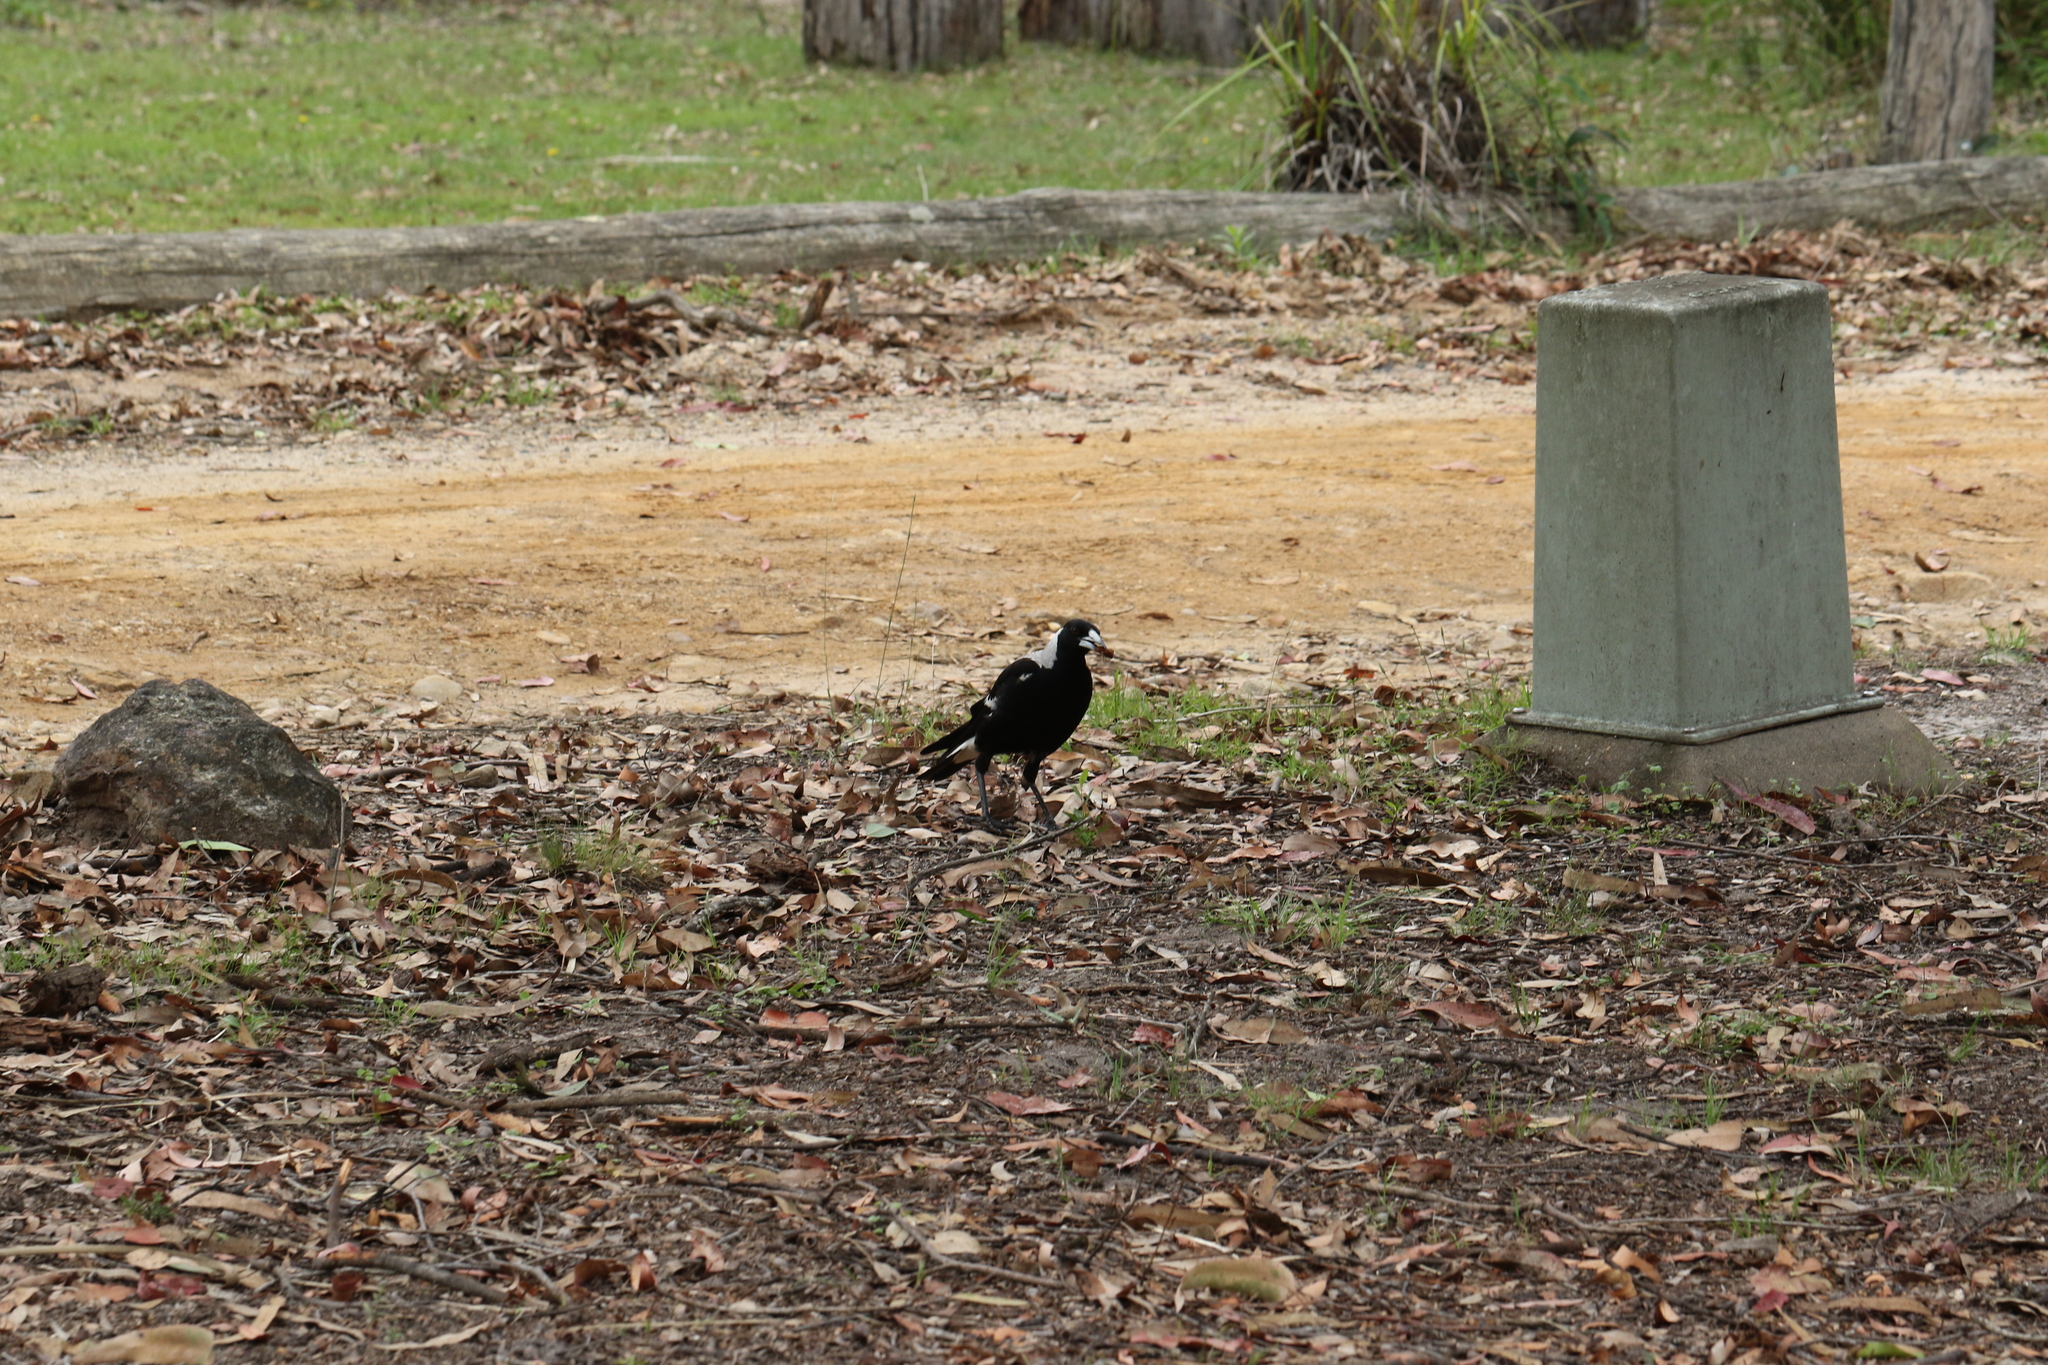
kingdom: Animalia
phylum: Chordata
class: Aves
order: Passeriformes
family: Cracticidae
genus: Gymnorhina
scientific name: Gymnorhina tibicen
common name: Australian magpie
